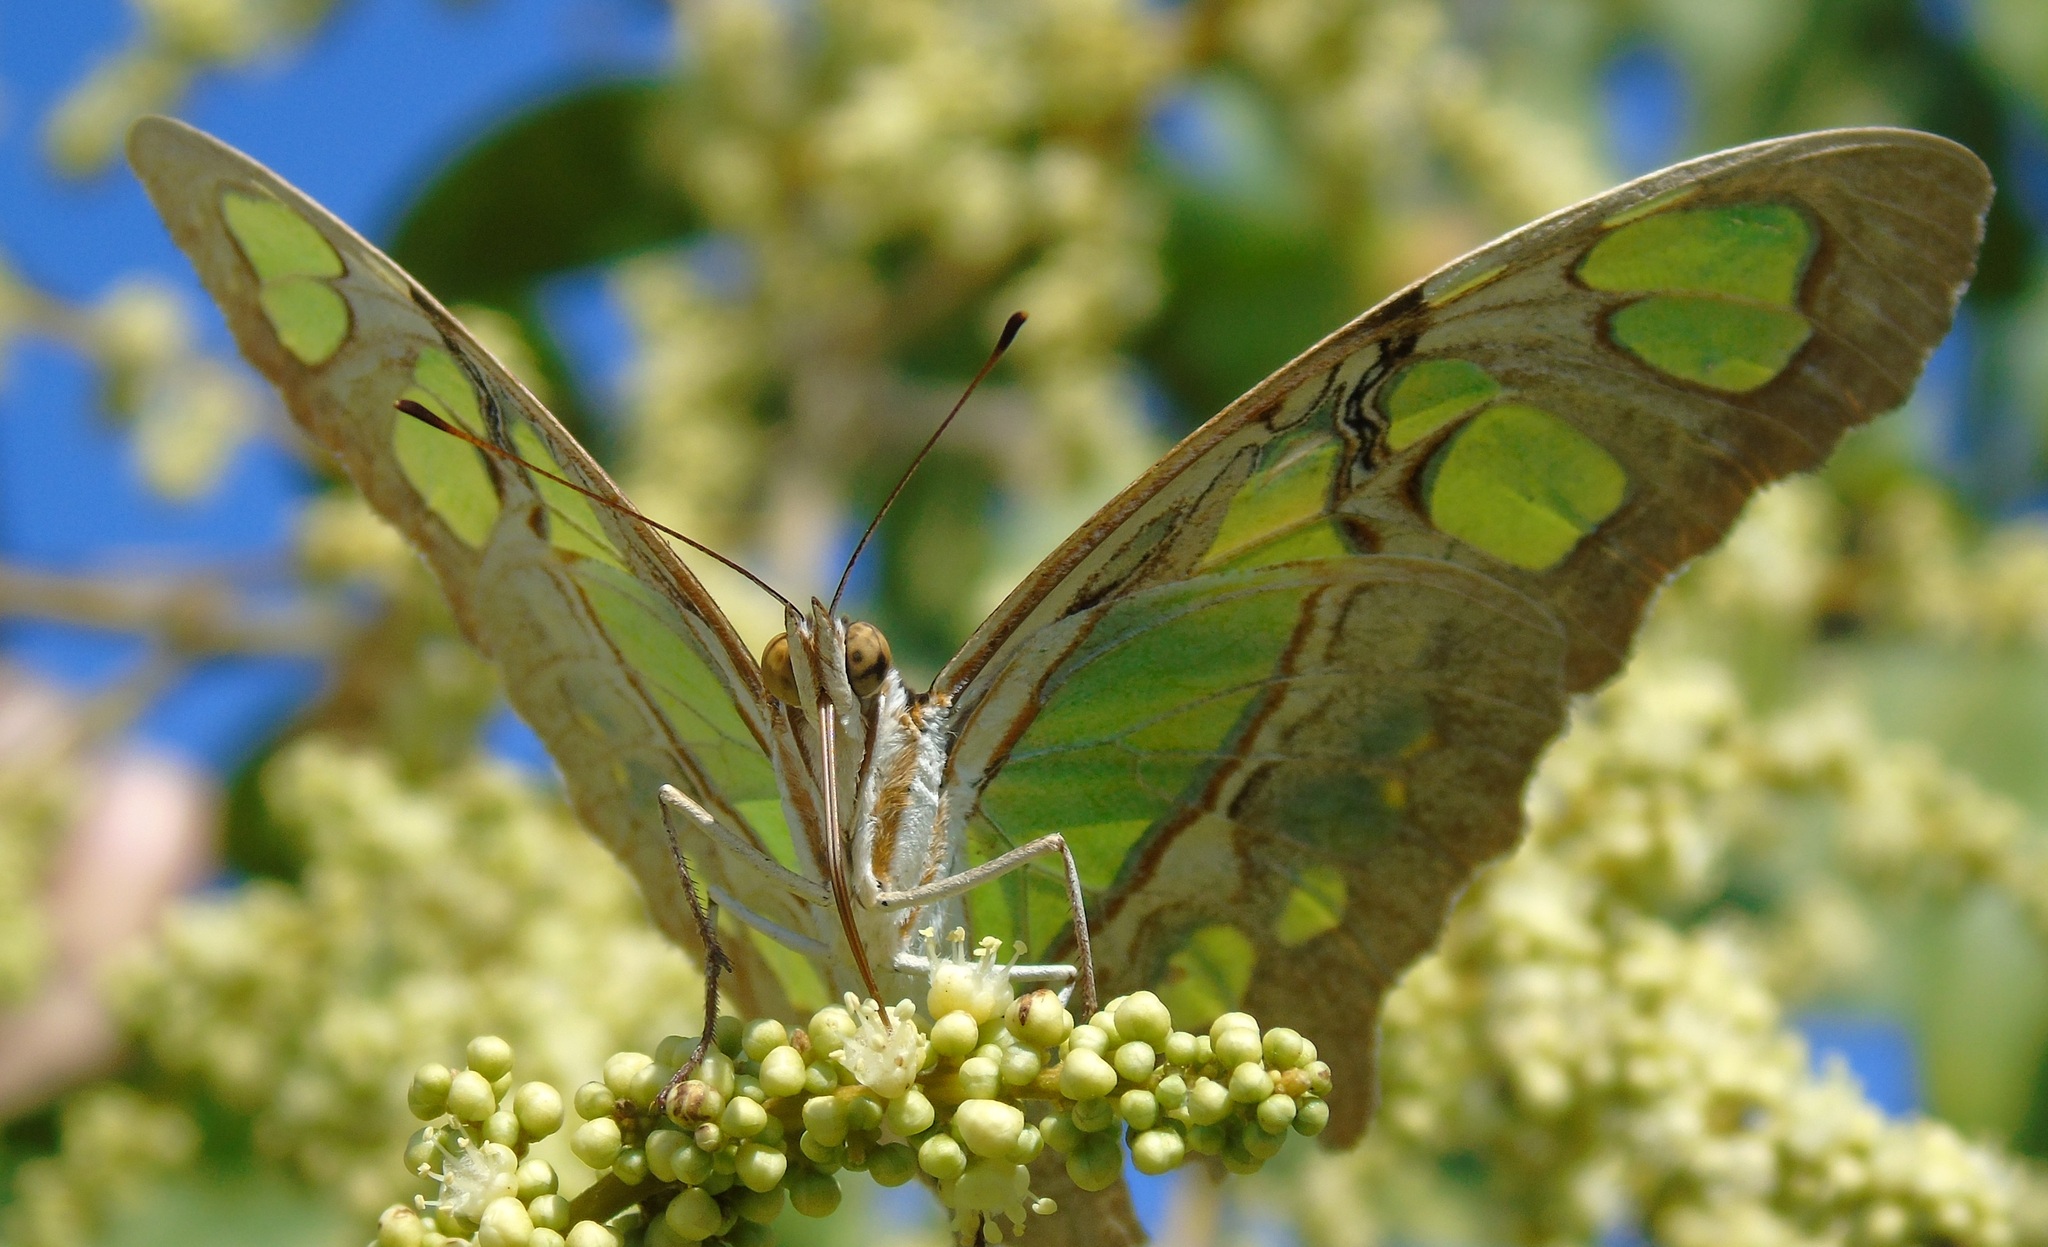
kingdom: Animalia
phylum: Arthropoda
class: Insecta
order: Lepidoptera
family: Nymphalidae
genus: Siproeta
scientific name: Siproeta stelenes
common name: Malachite
